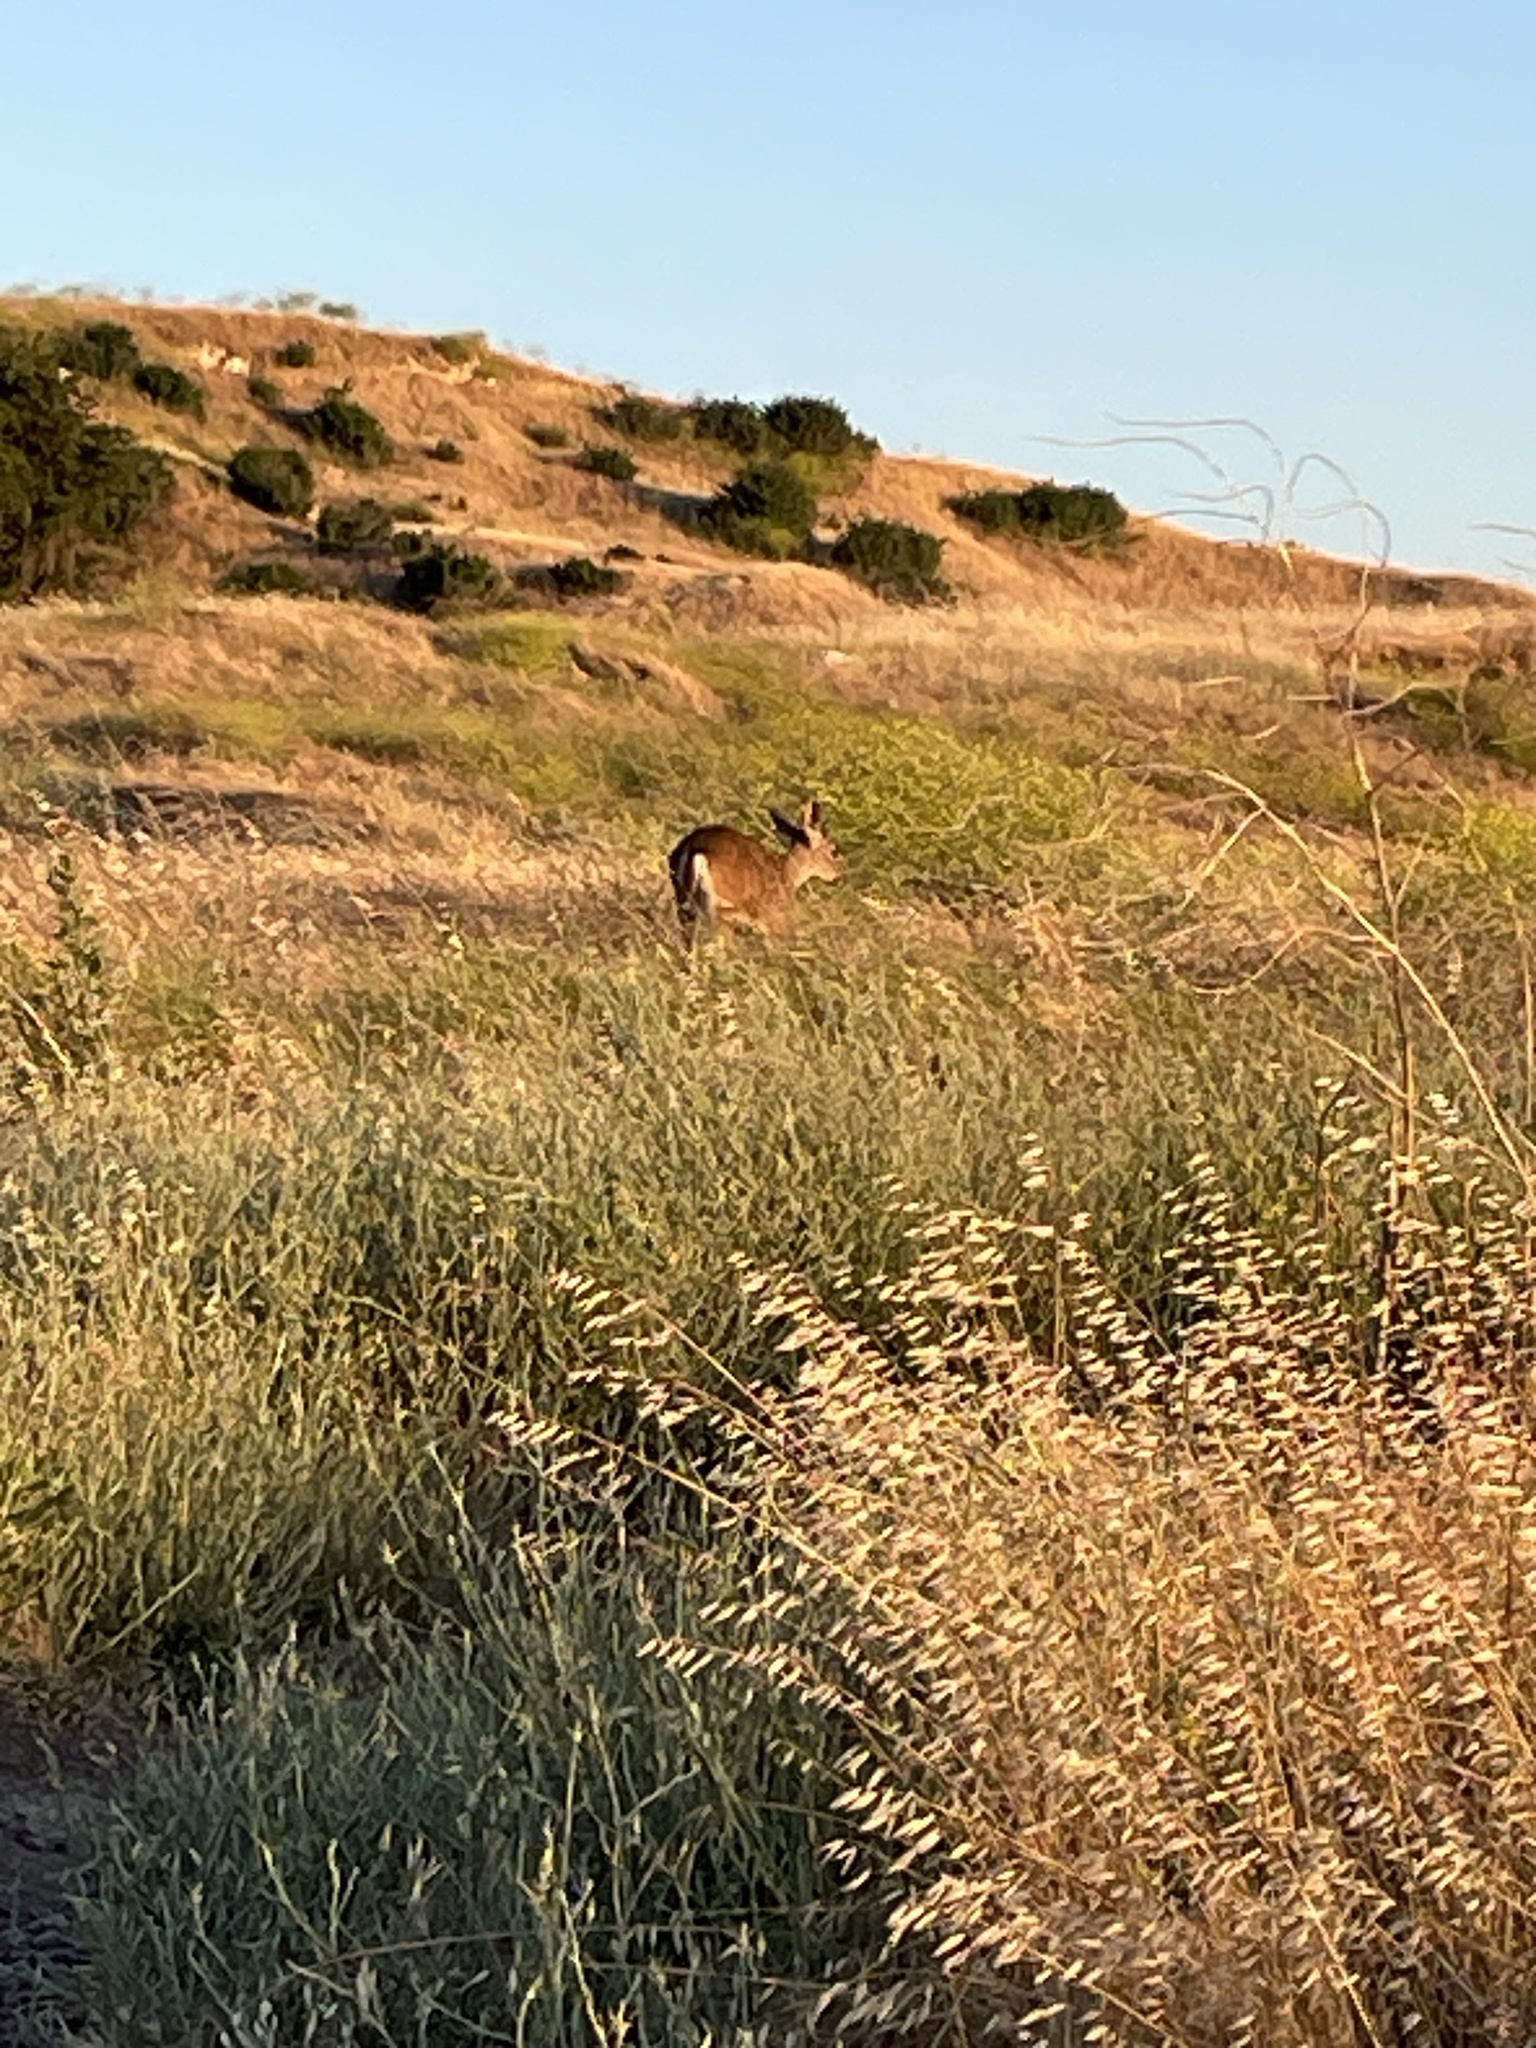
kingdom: Animalia
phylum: Chordata
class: Mammalia
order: Artiodactyla
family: Cervidae
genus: Odocoileus
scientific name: Odocoileus hemionus
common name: Mule deer
